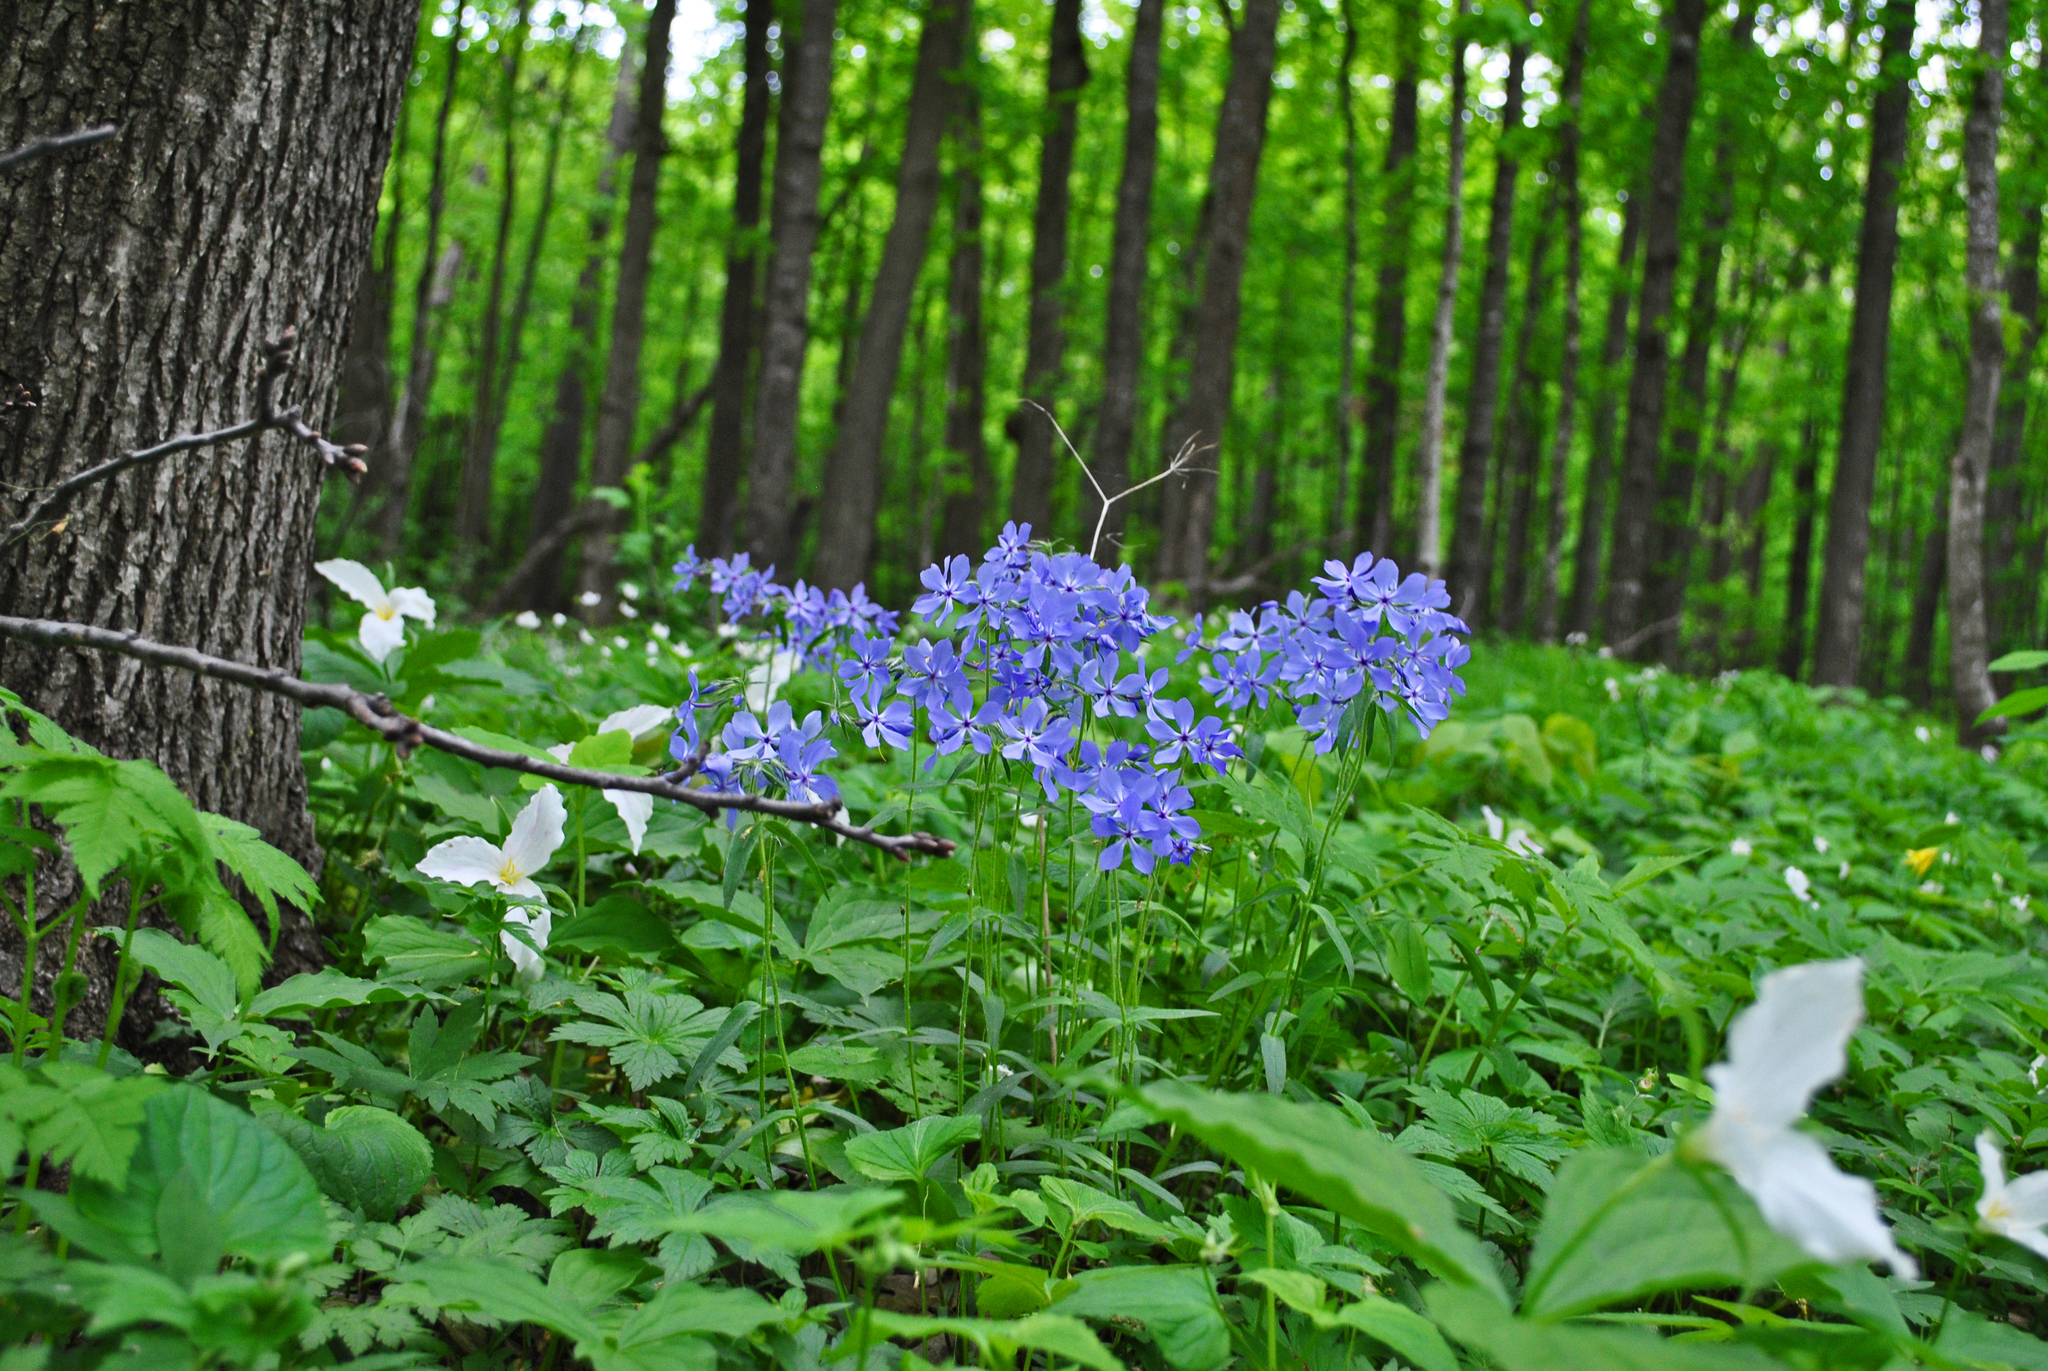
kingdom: Plantae
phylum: Tracheophyta
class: Magnoliopsida
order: Ericales
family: Polemoniaceae
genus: Phlox
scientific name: Phlox divaricata
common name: Blue phlox
